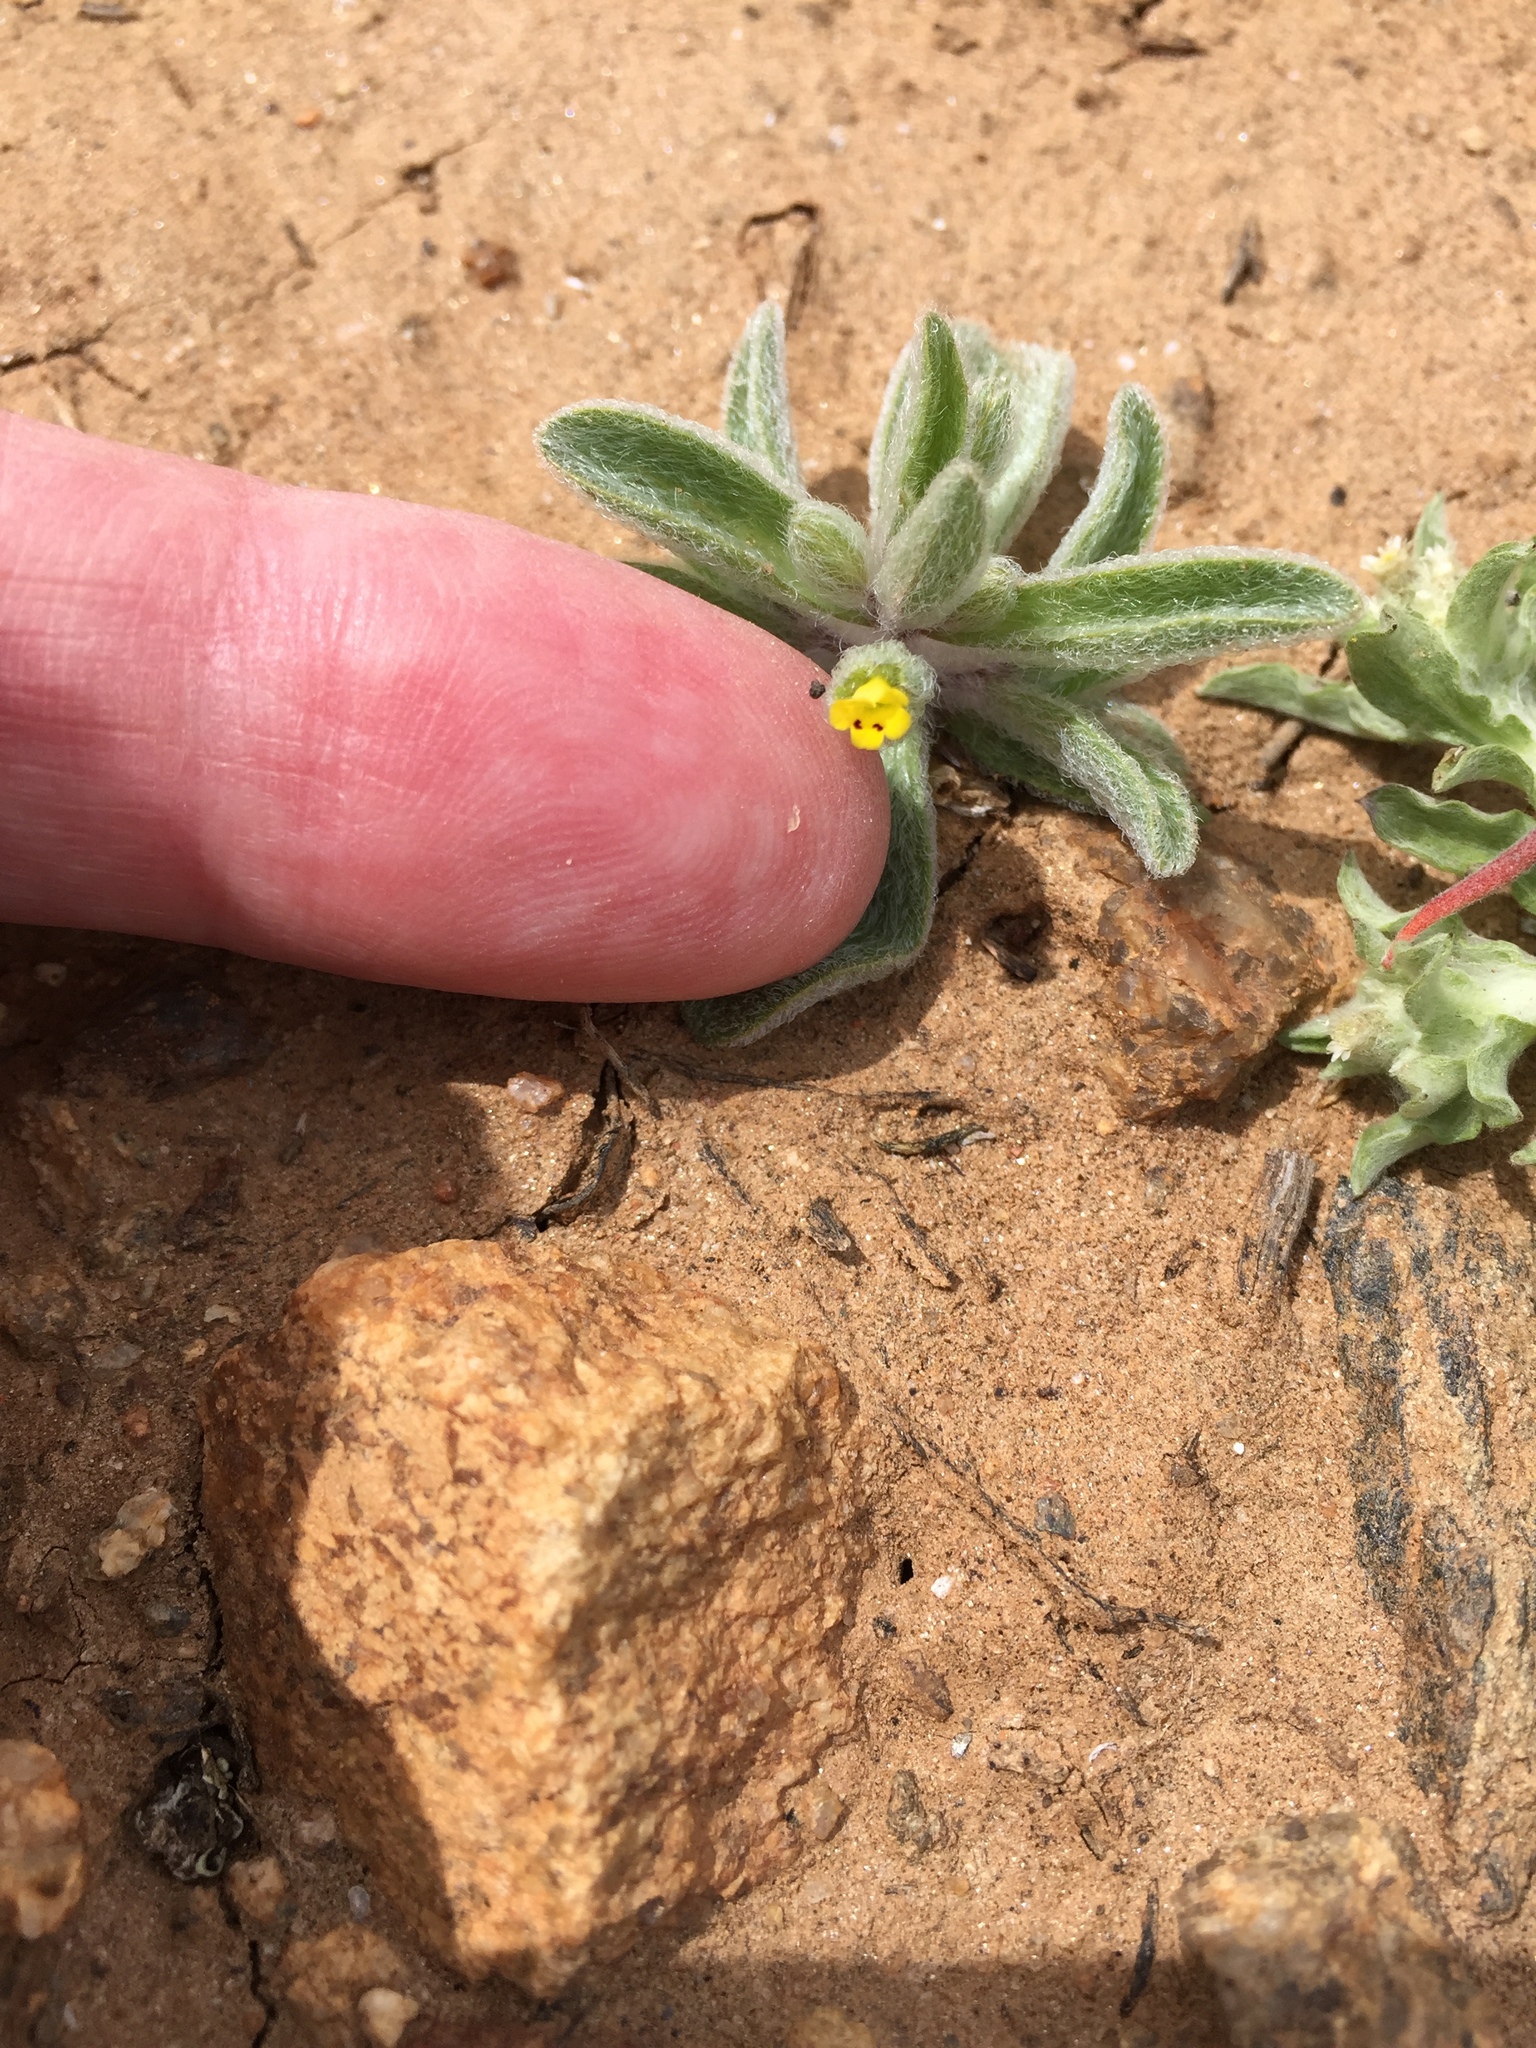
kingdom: Plantae
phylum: Tracheophyta
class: Magnoliopsida
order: Lamiales
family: Phrymaceae
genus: Mimetanthe
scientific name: Mimetanthe pilosa
